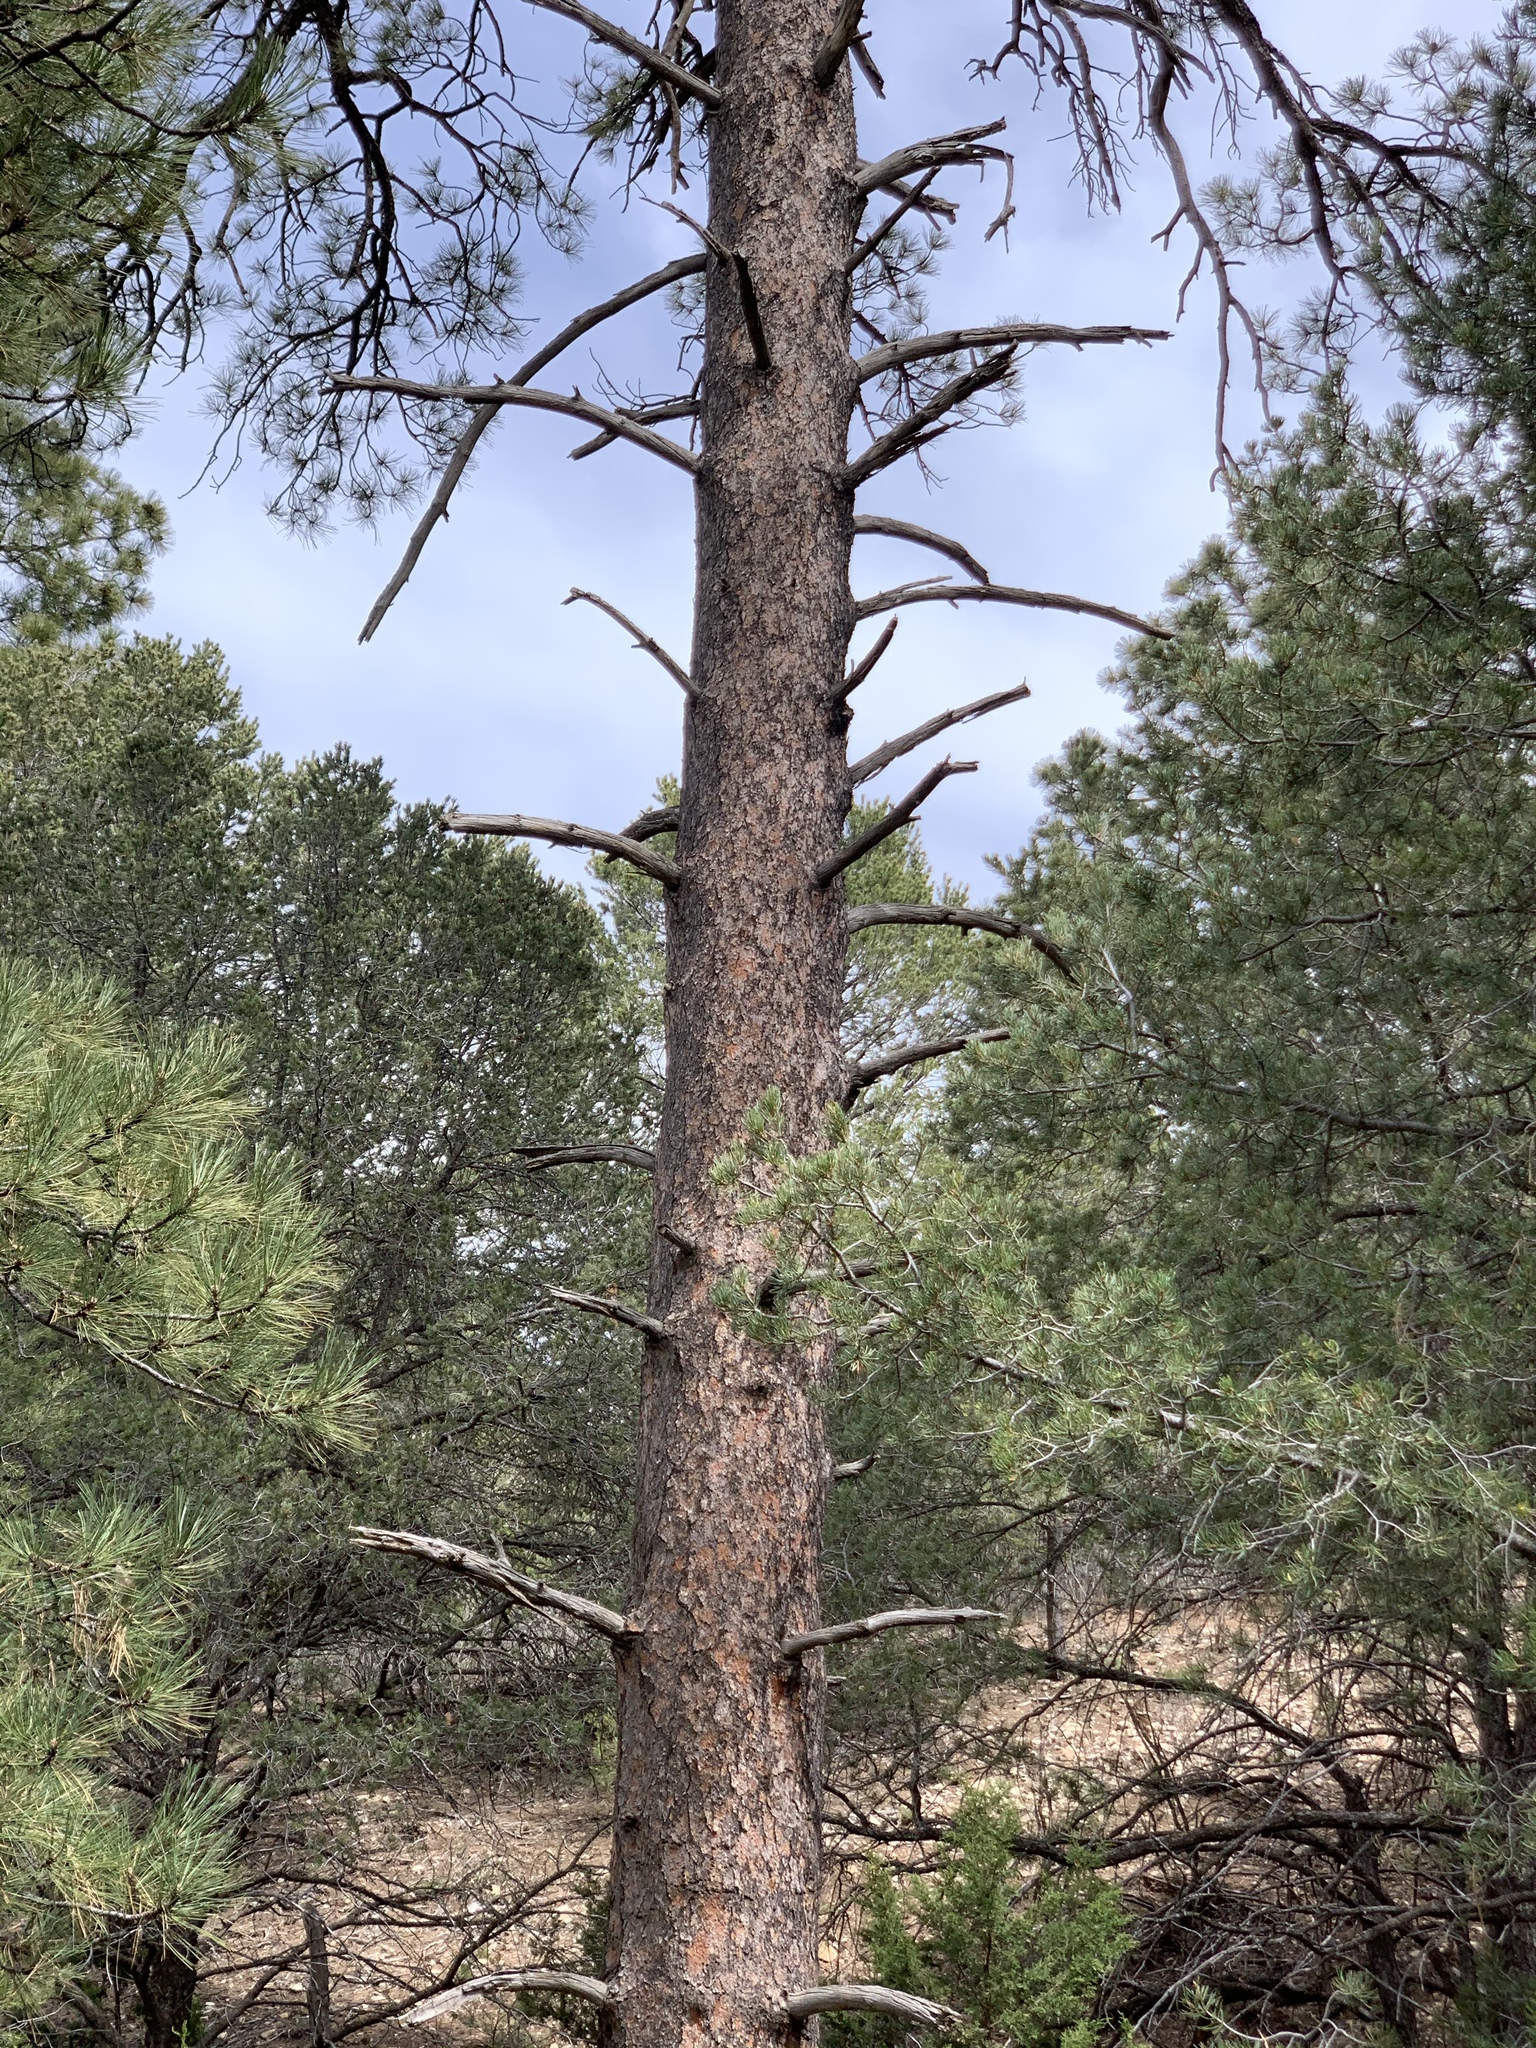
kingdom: Plantae
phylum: Tracheophyta
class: Pinopsida
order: Pinales
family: Pinaceae
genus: Pinus
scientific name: Pinus ponderosa
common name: Western yellow-pine
